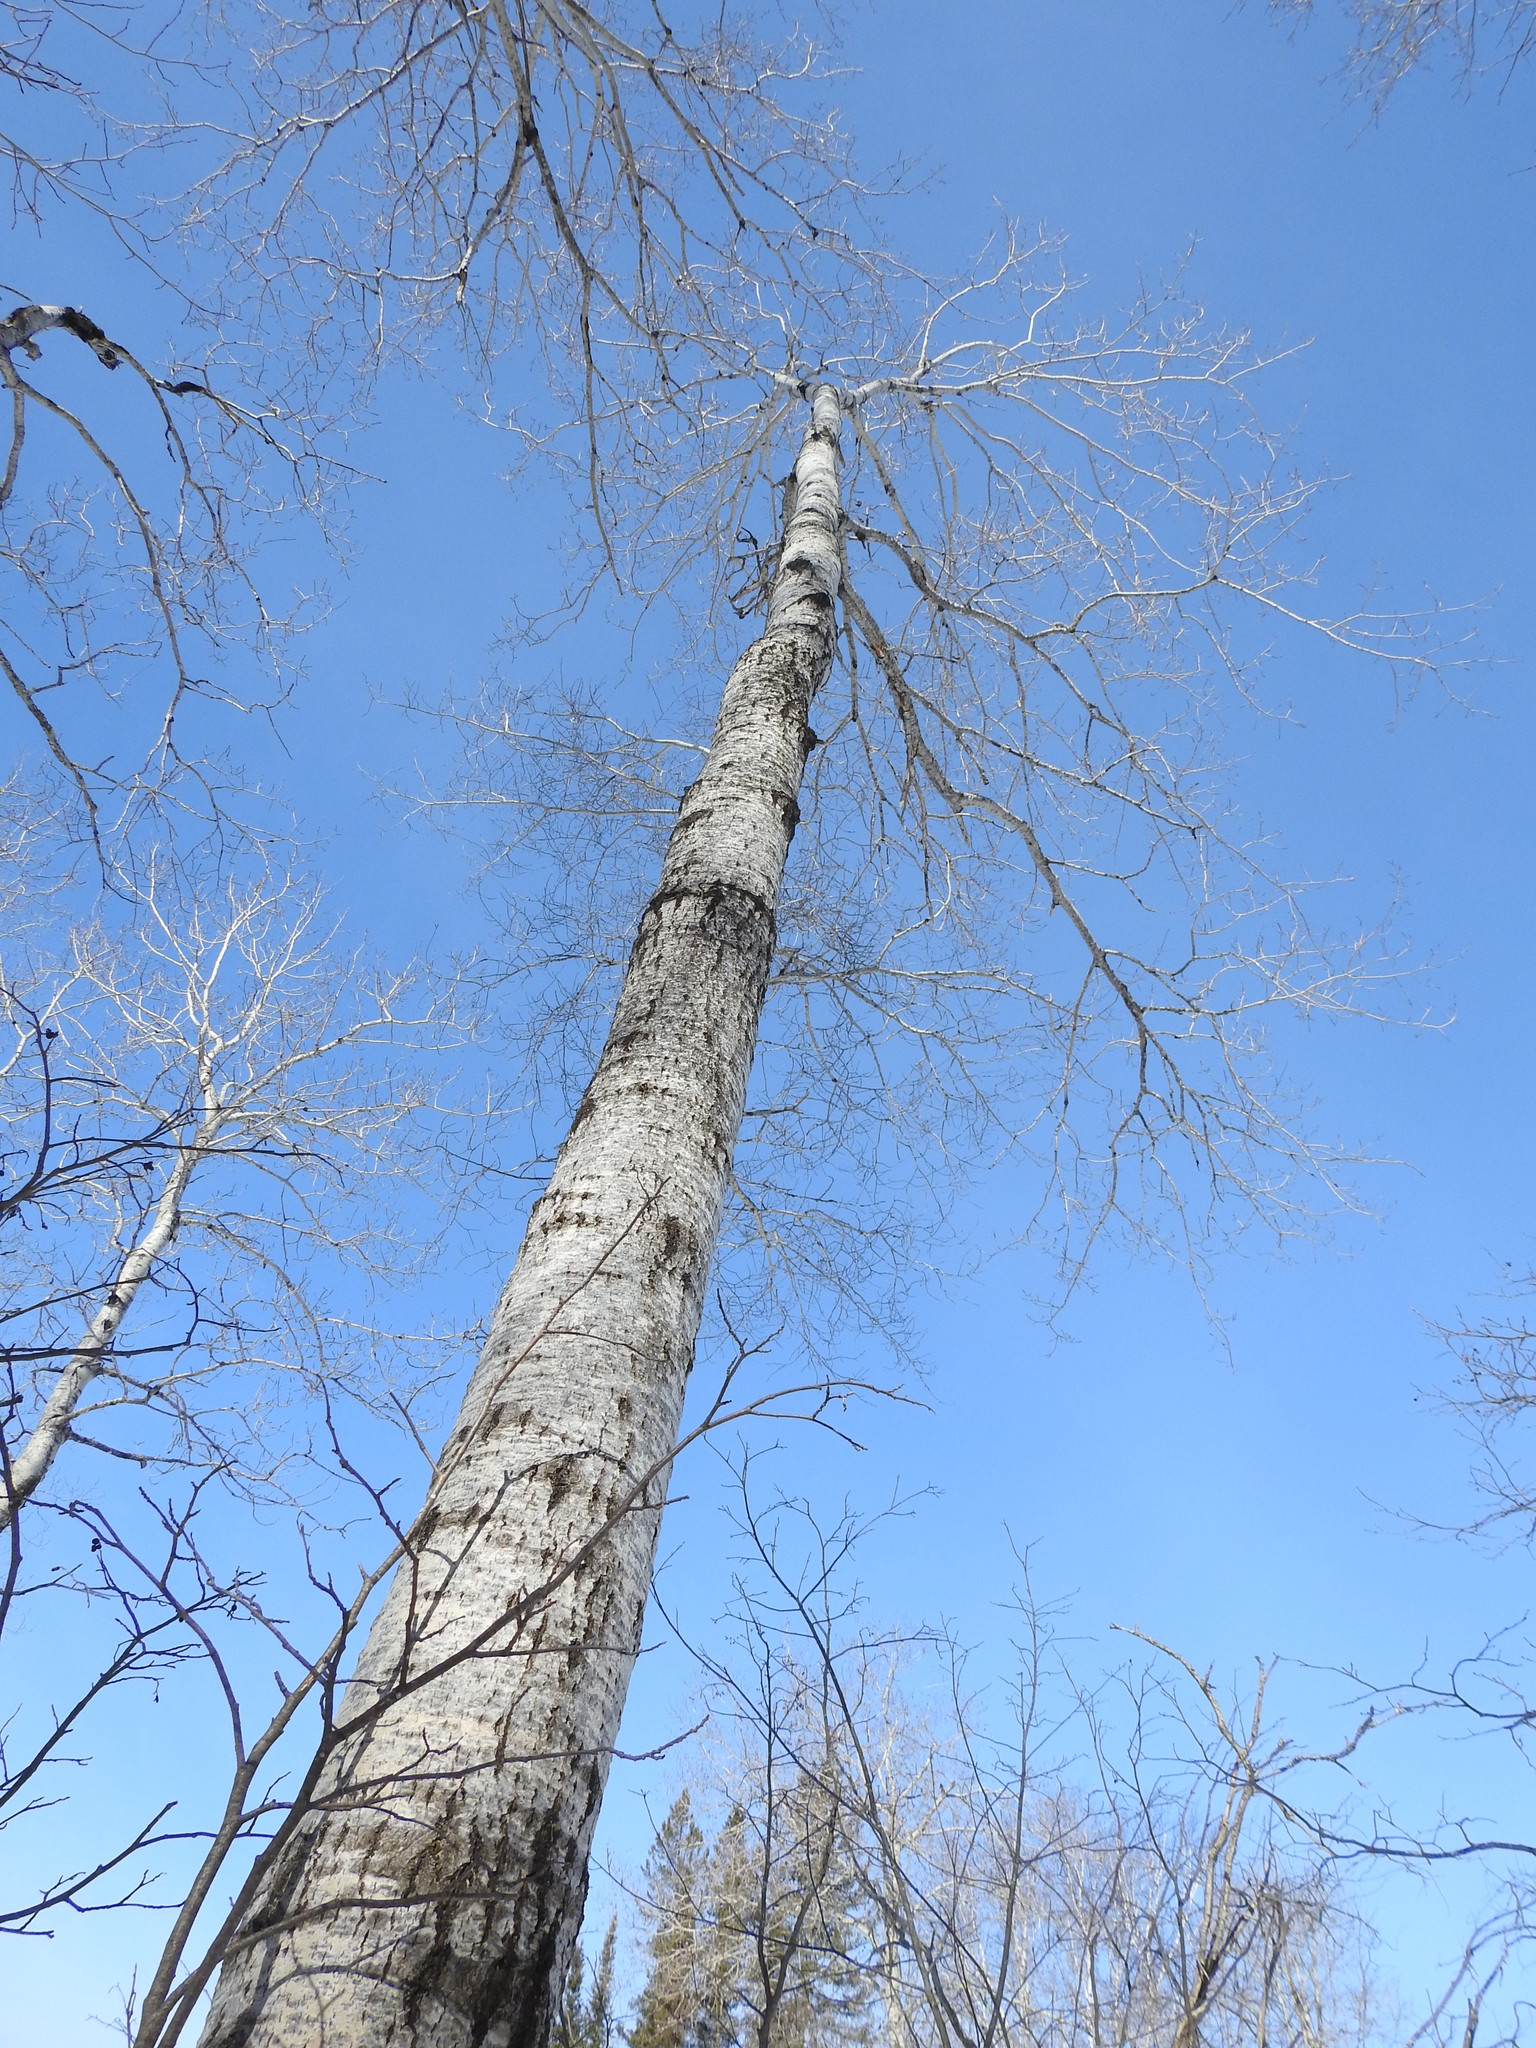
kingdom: Plantae
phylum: Tracheophyta
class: Magnoliopsida
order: Malpighiales
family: Salicaceae
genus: Populus
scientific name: Populus tremuloides
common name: Quaking aspen
